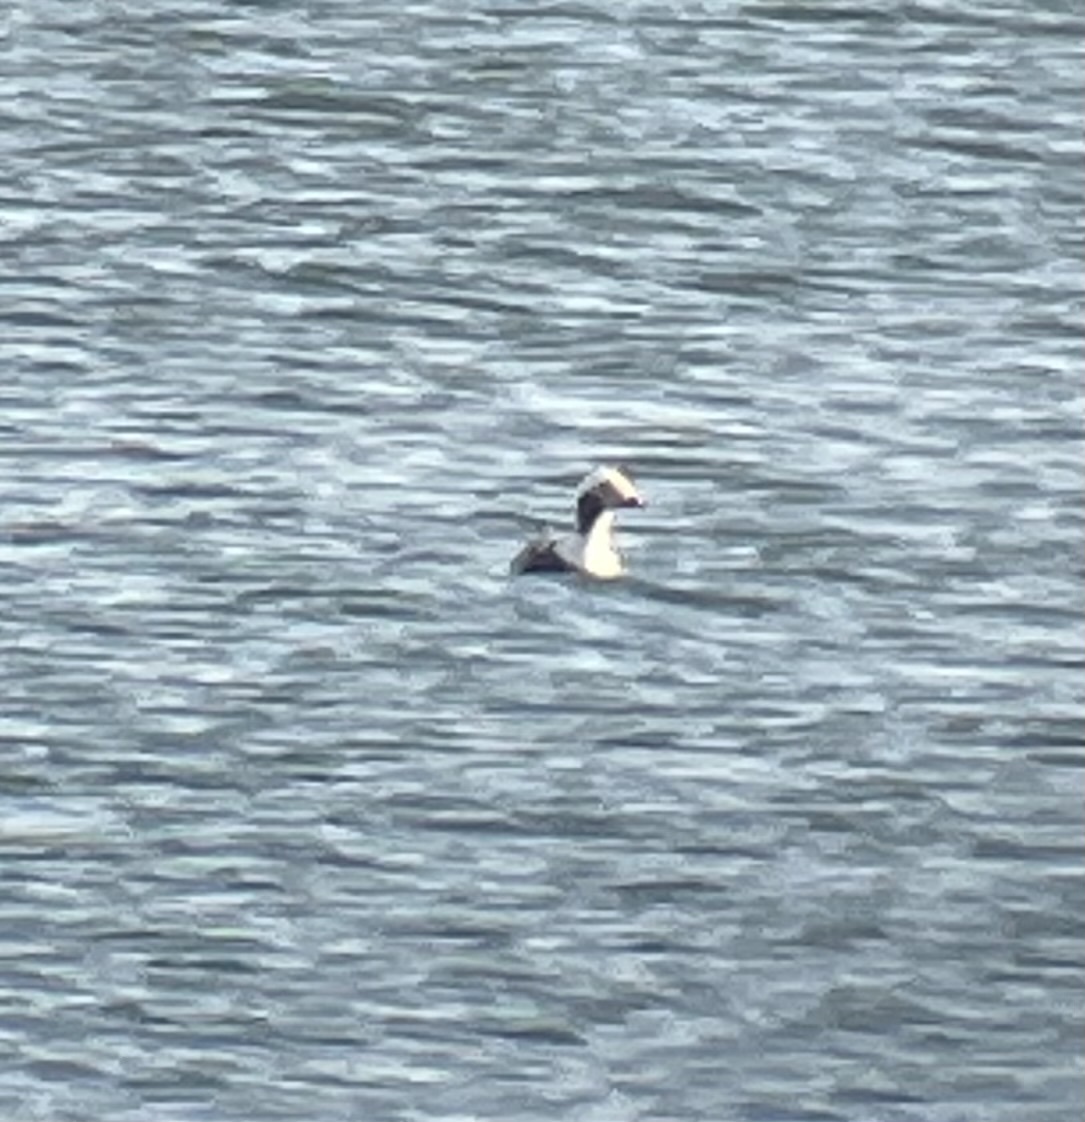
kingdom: Animalia
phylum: Chordata
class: Aves
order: Anseriformes
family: Anatidae
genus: Clangula
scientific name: Clangula hyemalis
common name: Long-tailed duck
